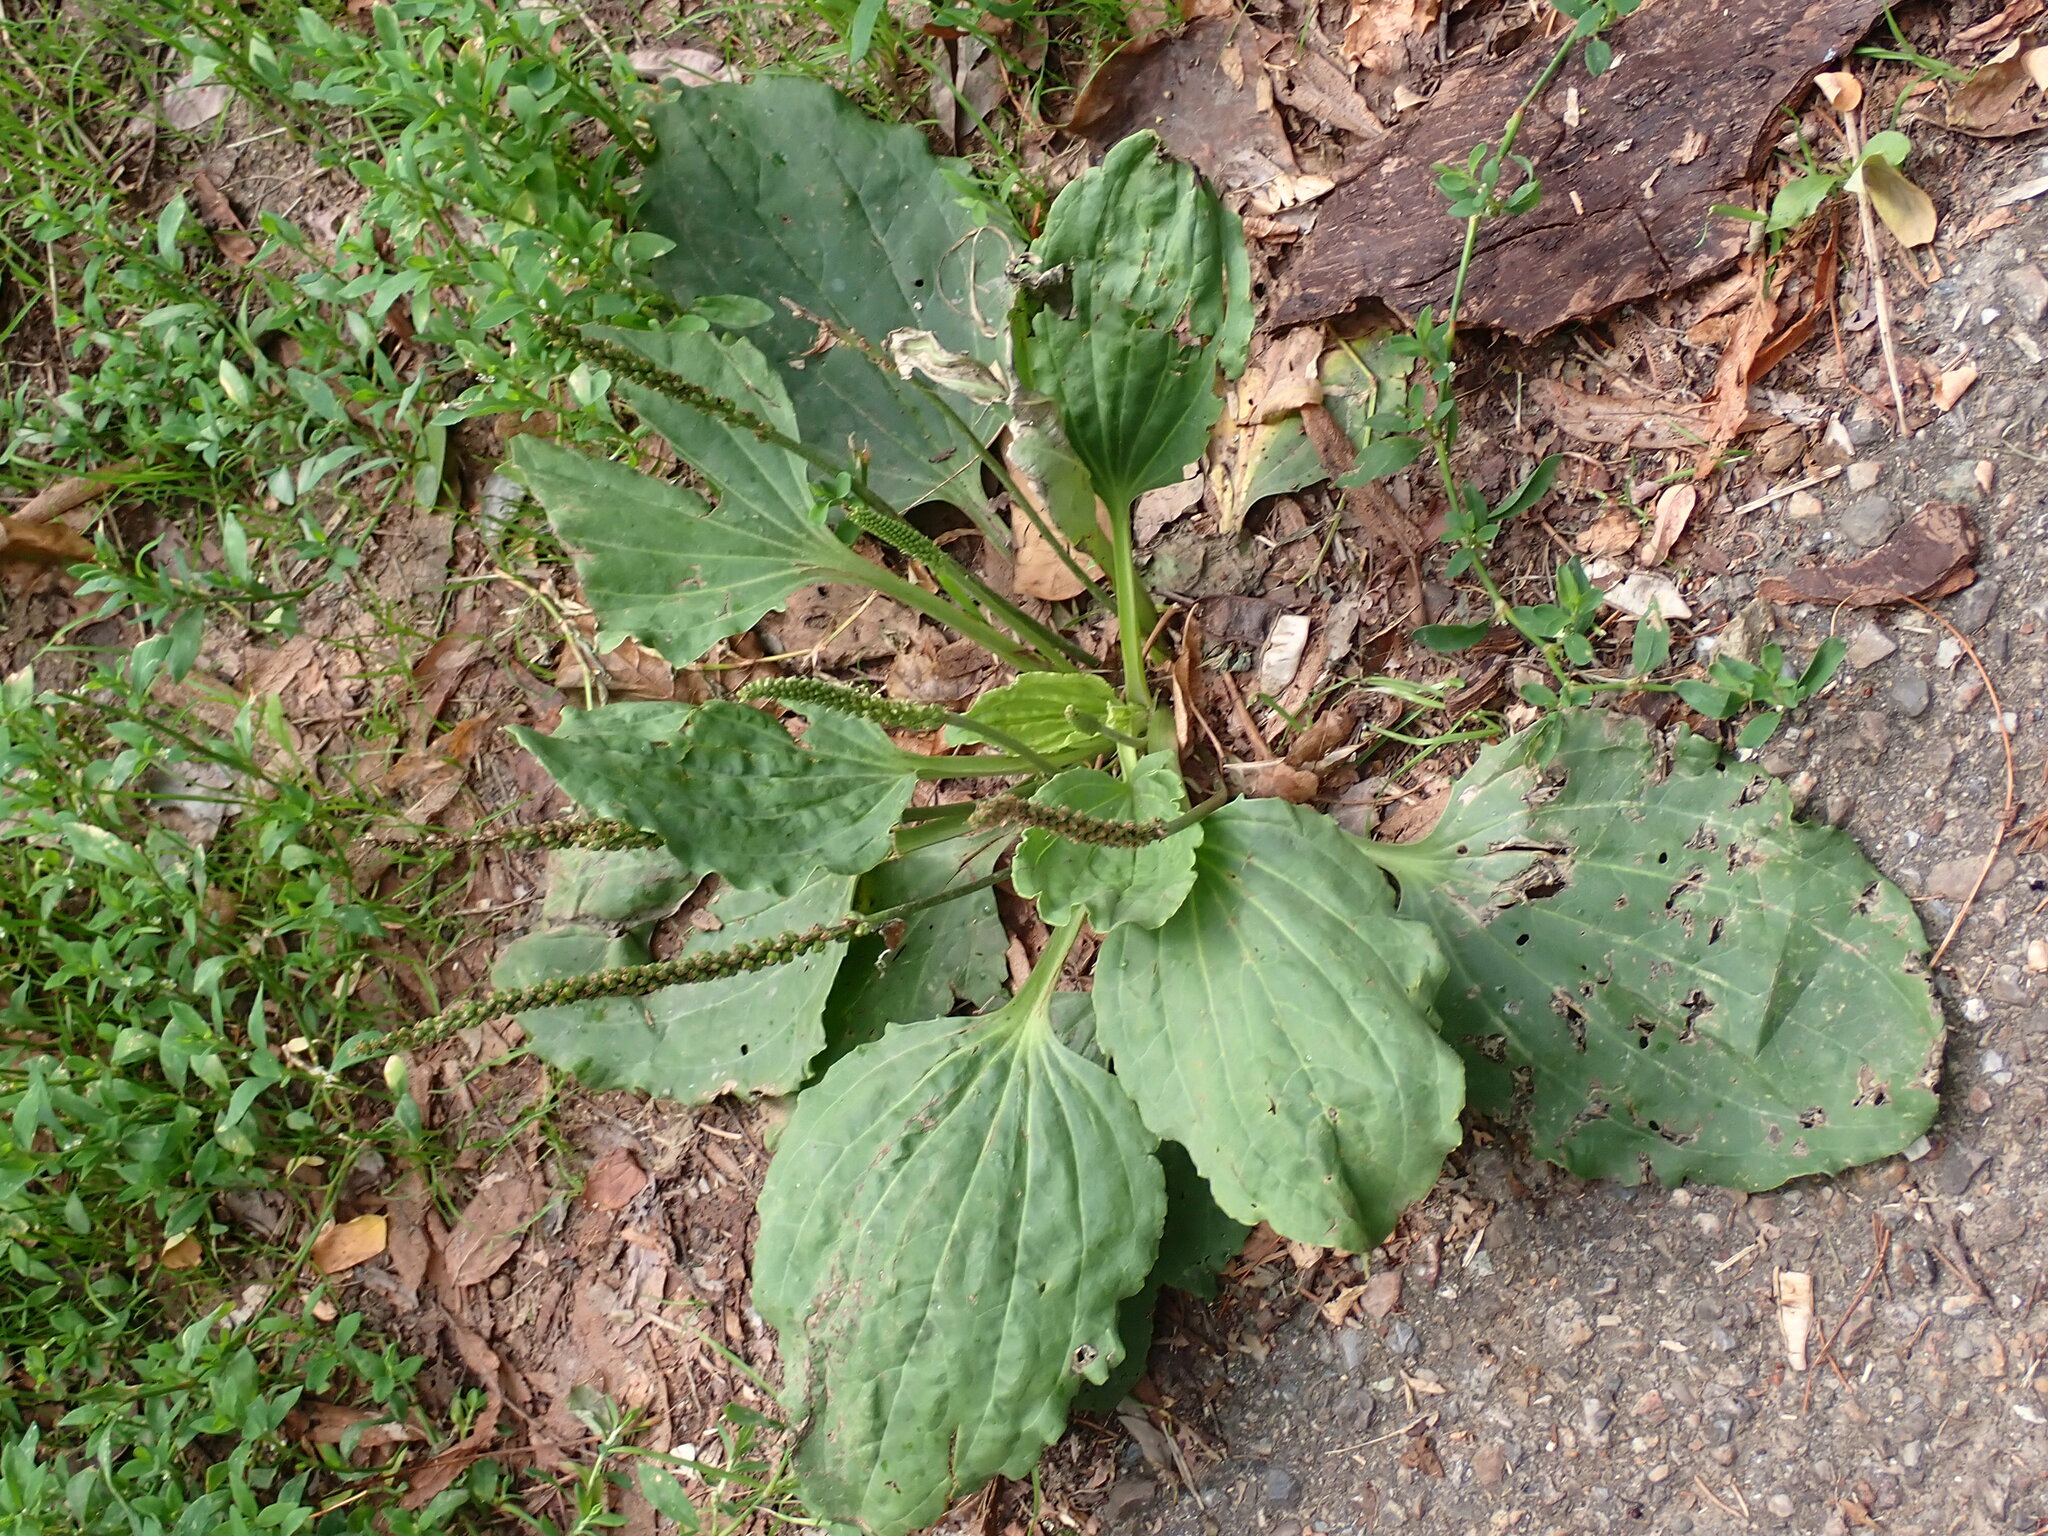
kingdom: Plantae
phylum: Tracheophyta
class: Magnoliopsida
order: Lamiales
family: Plantaginaceae
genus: Plantago
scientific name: Plantago major
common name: Common plantain
